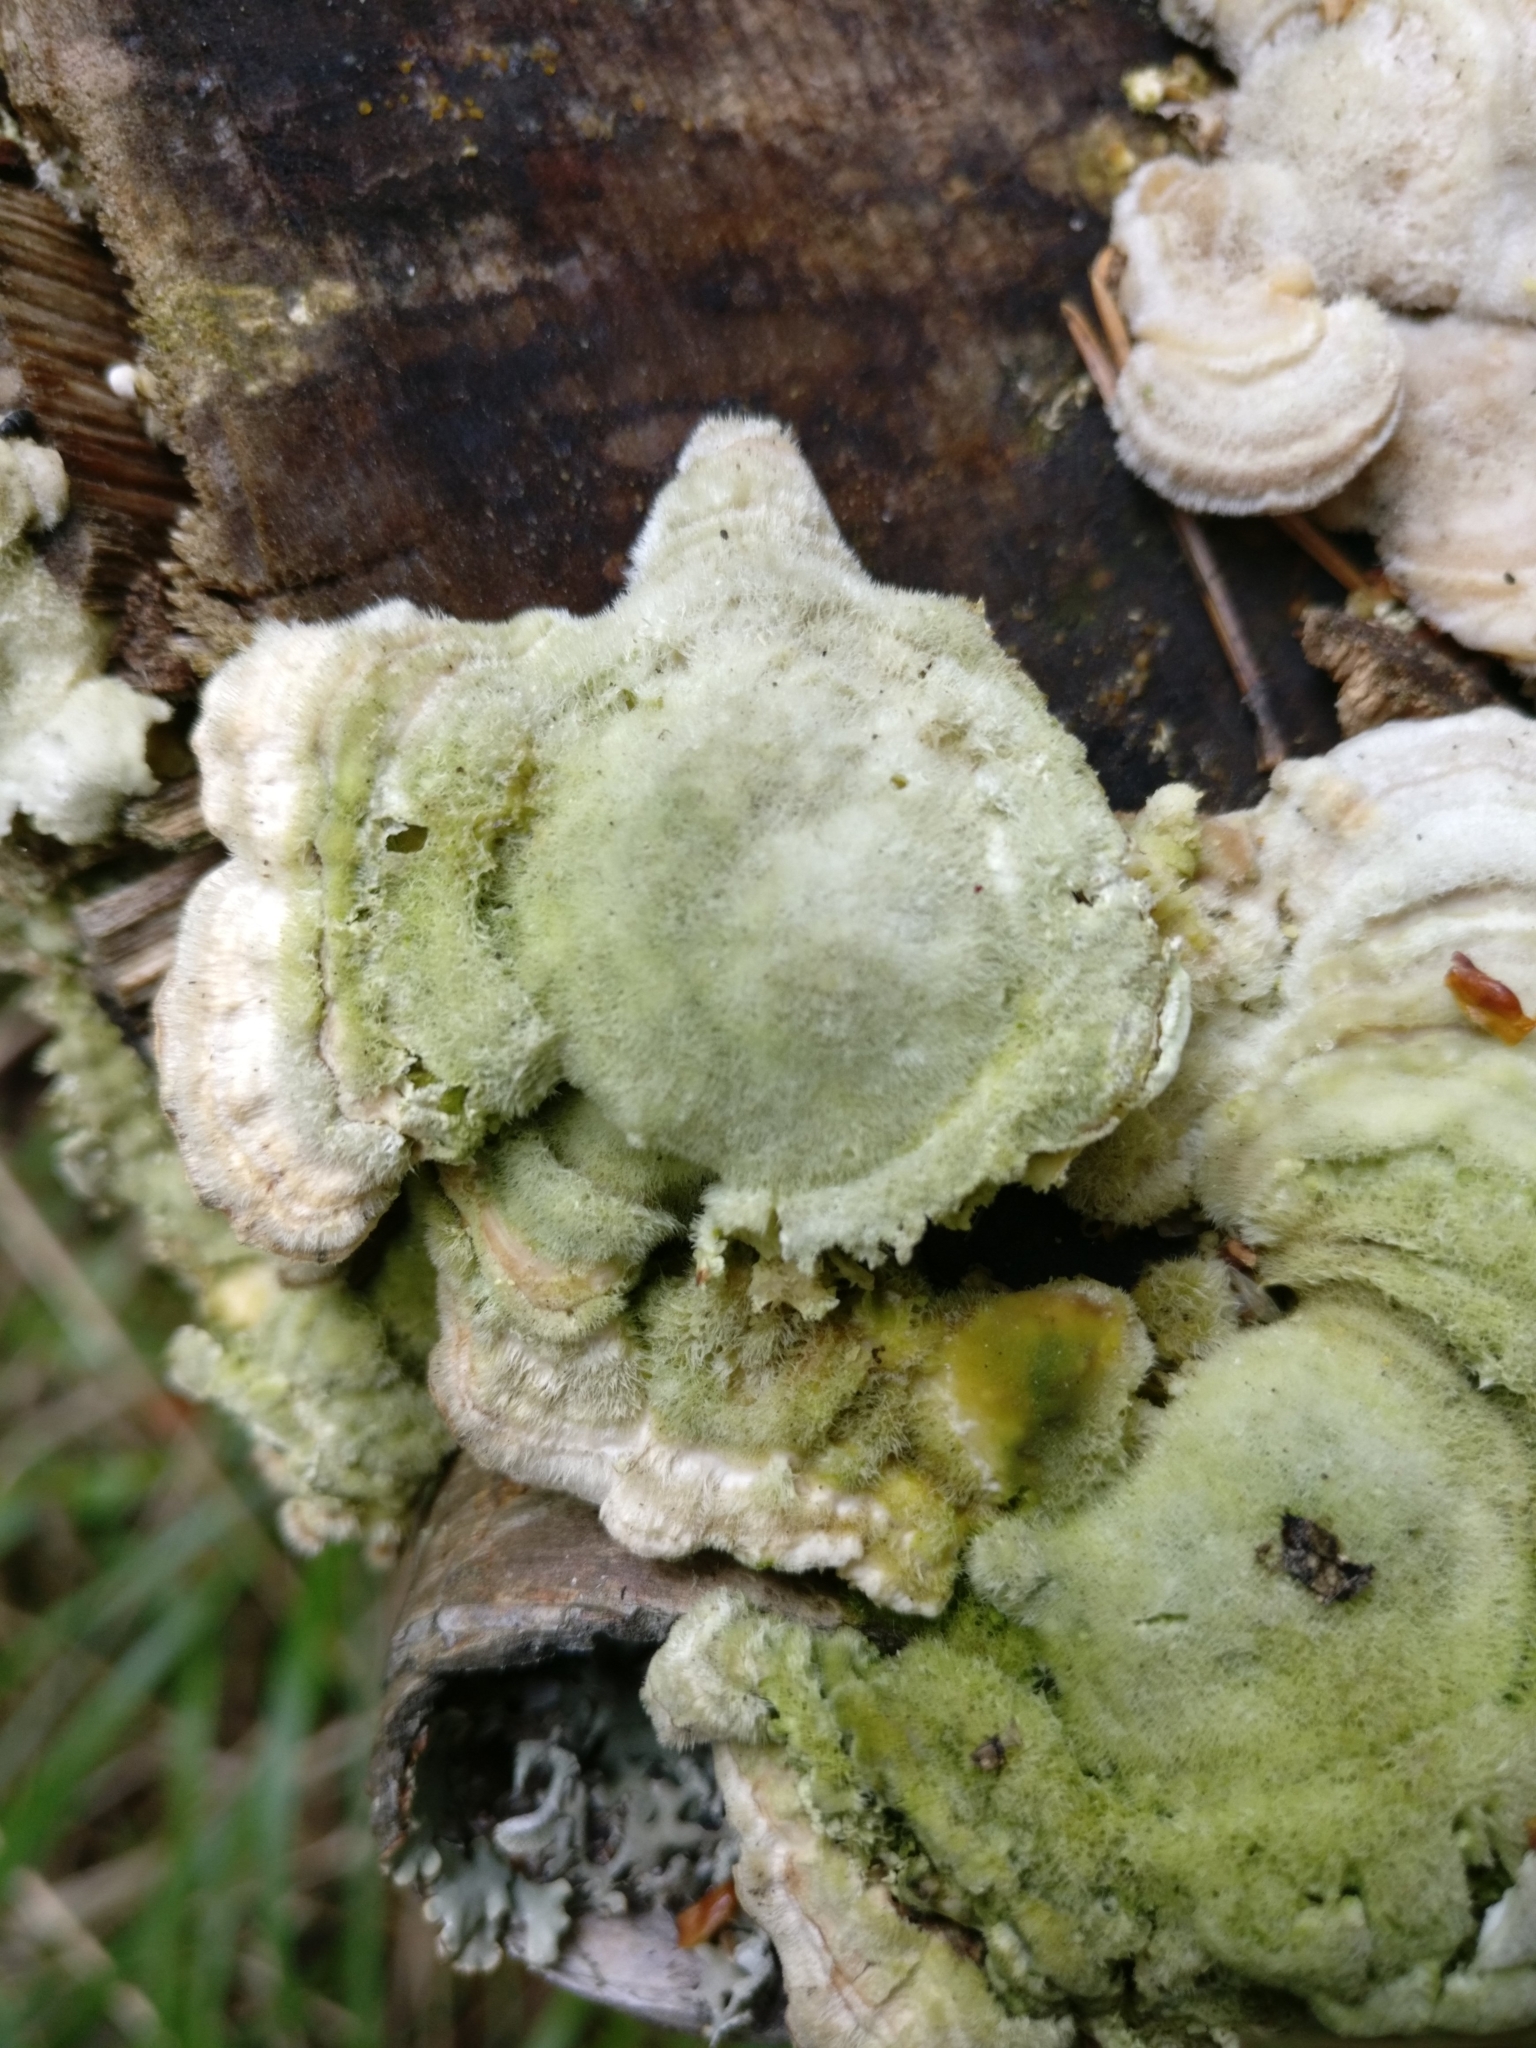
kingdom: Fungi
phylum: Basidiomycota
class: Agaricomycetes
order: Polyporales
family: Polyporaceae
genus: Lenzites
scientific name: Lenzites betulinus
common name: Birch mazegill
